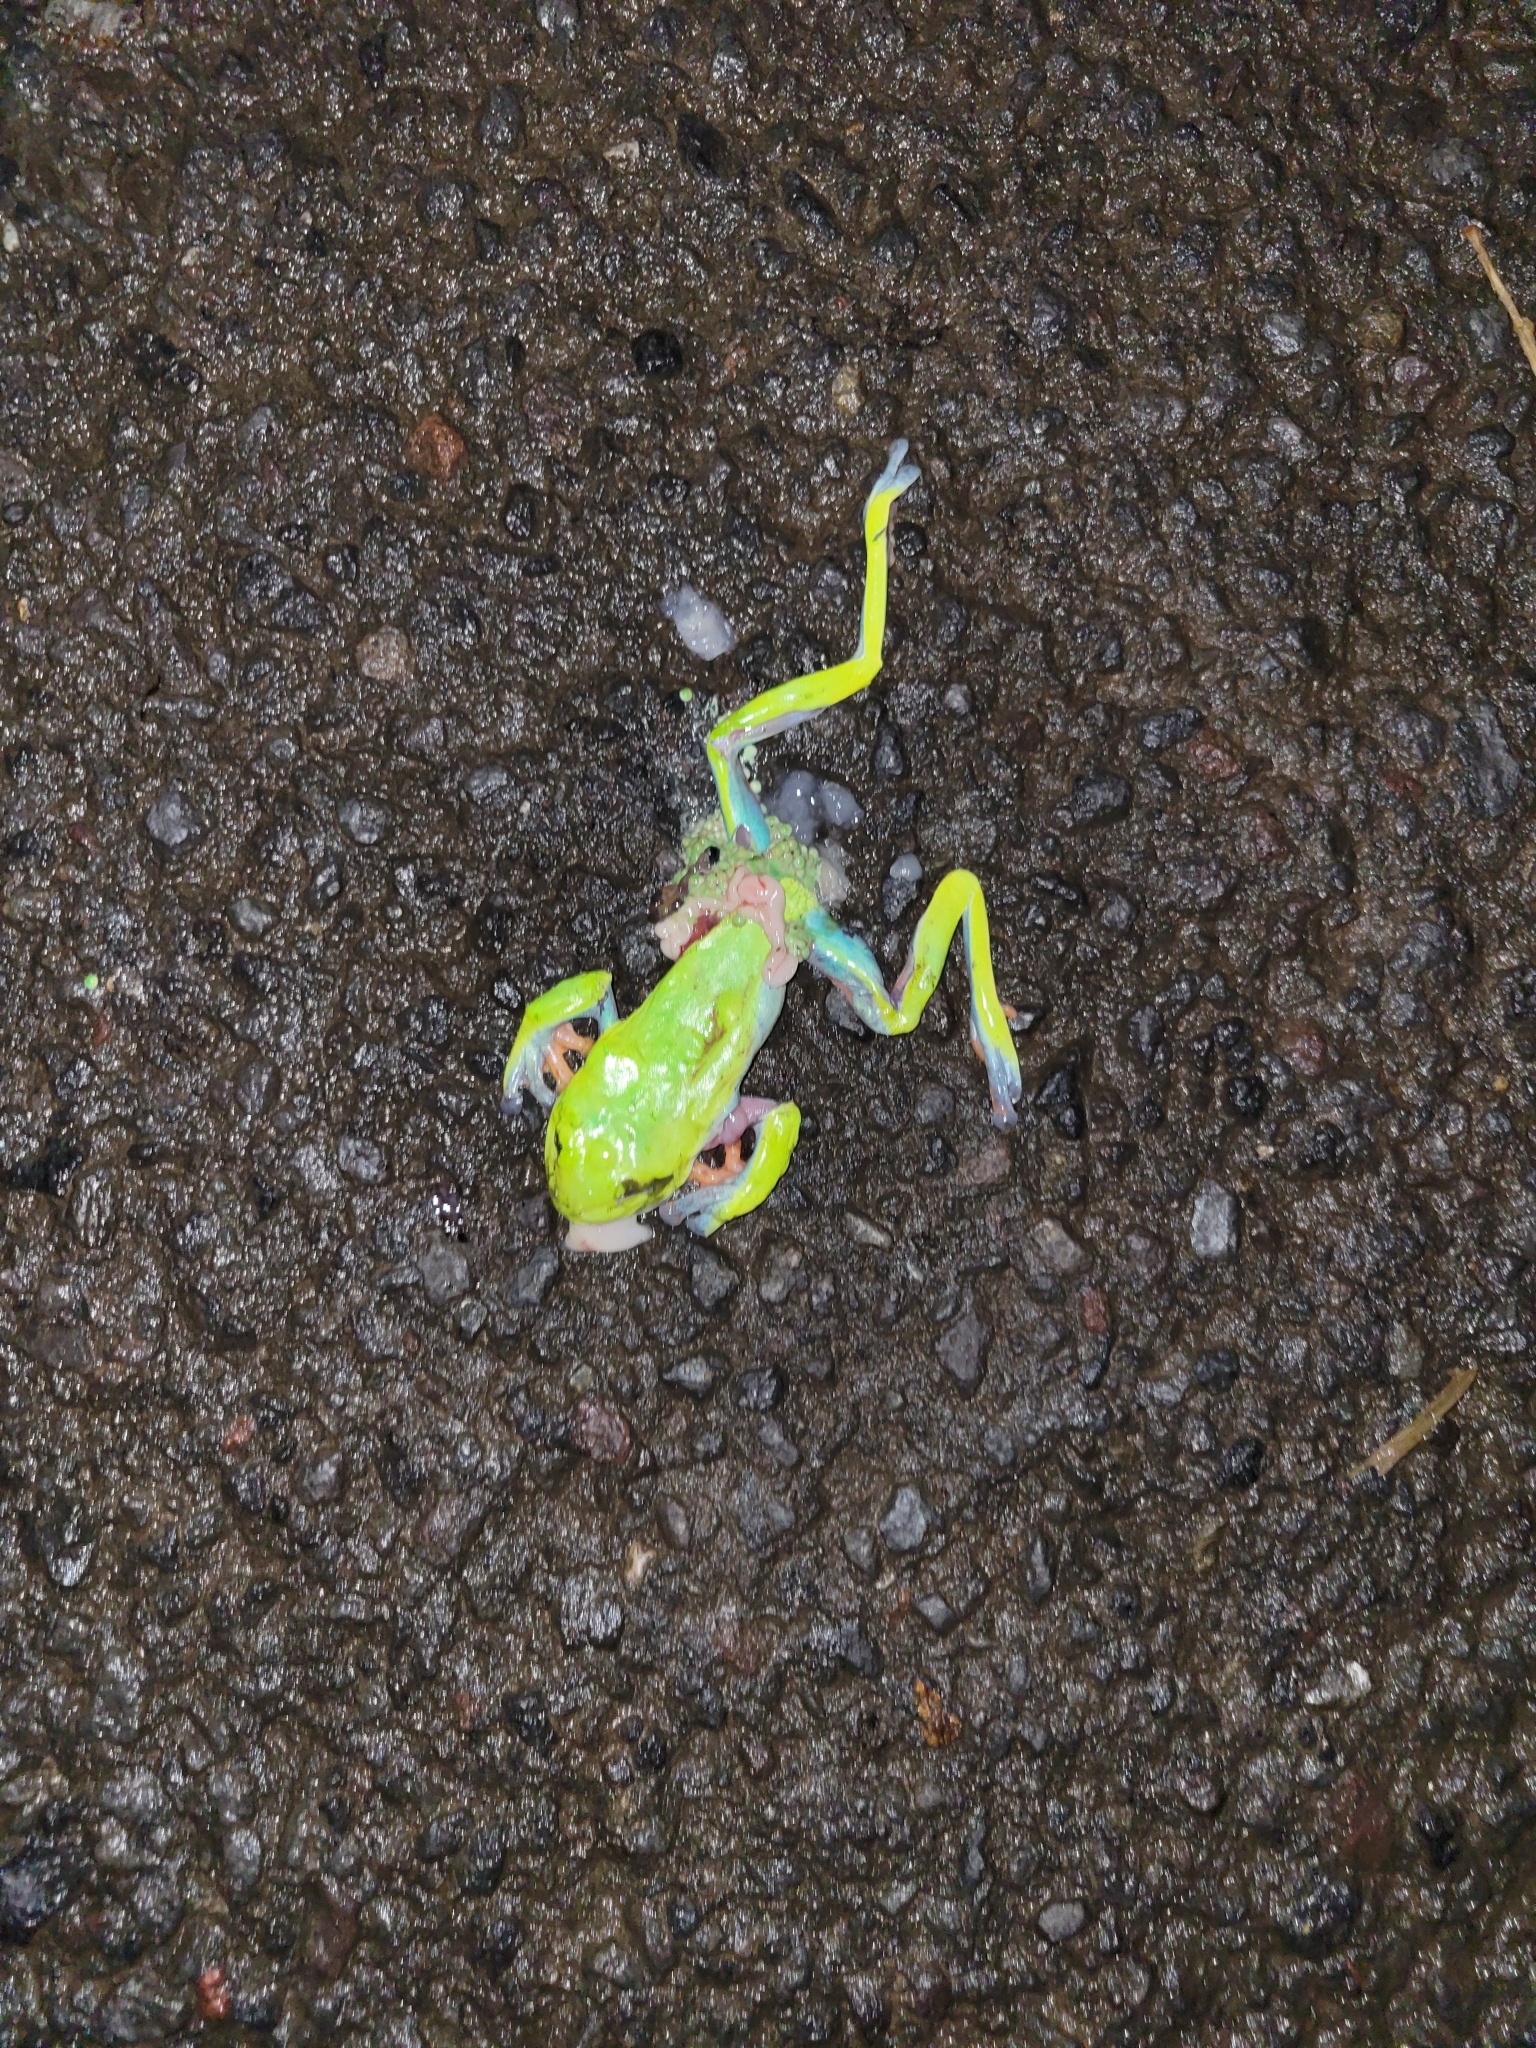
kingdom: Animalia
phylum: Chordata
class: Amphibia
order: Anura
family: Phyllomedusidae
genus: Agalychnis
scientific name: Agalychnis annae
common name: Blue-sided treefrog
